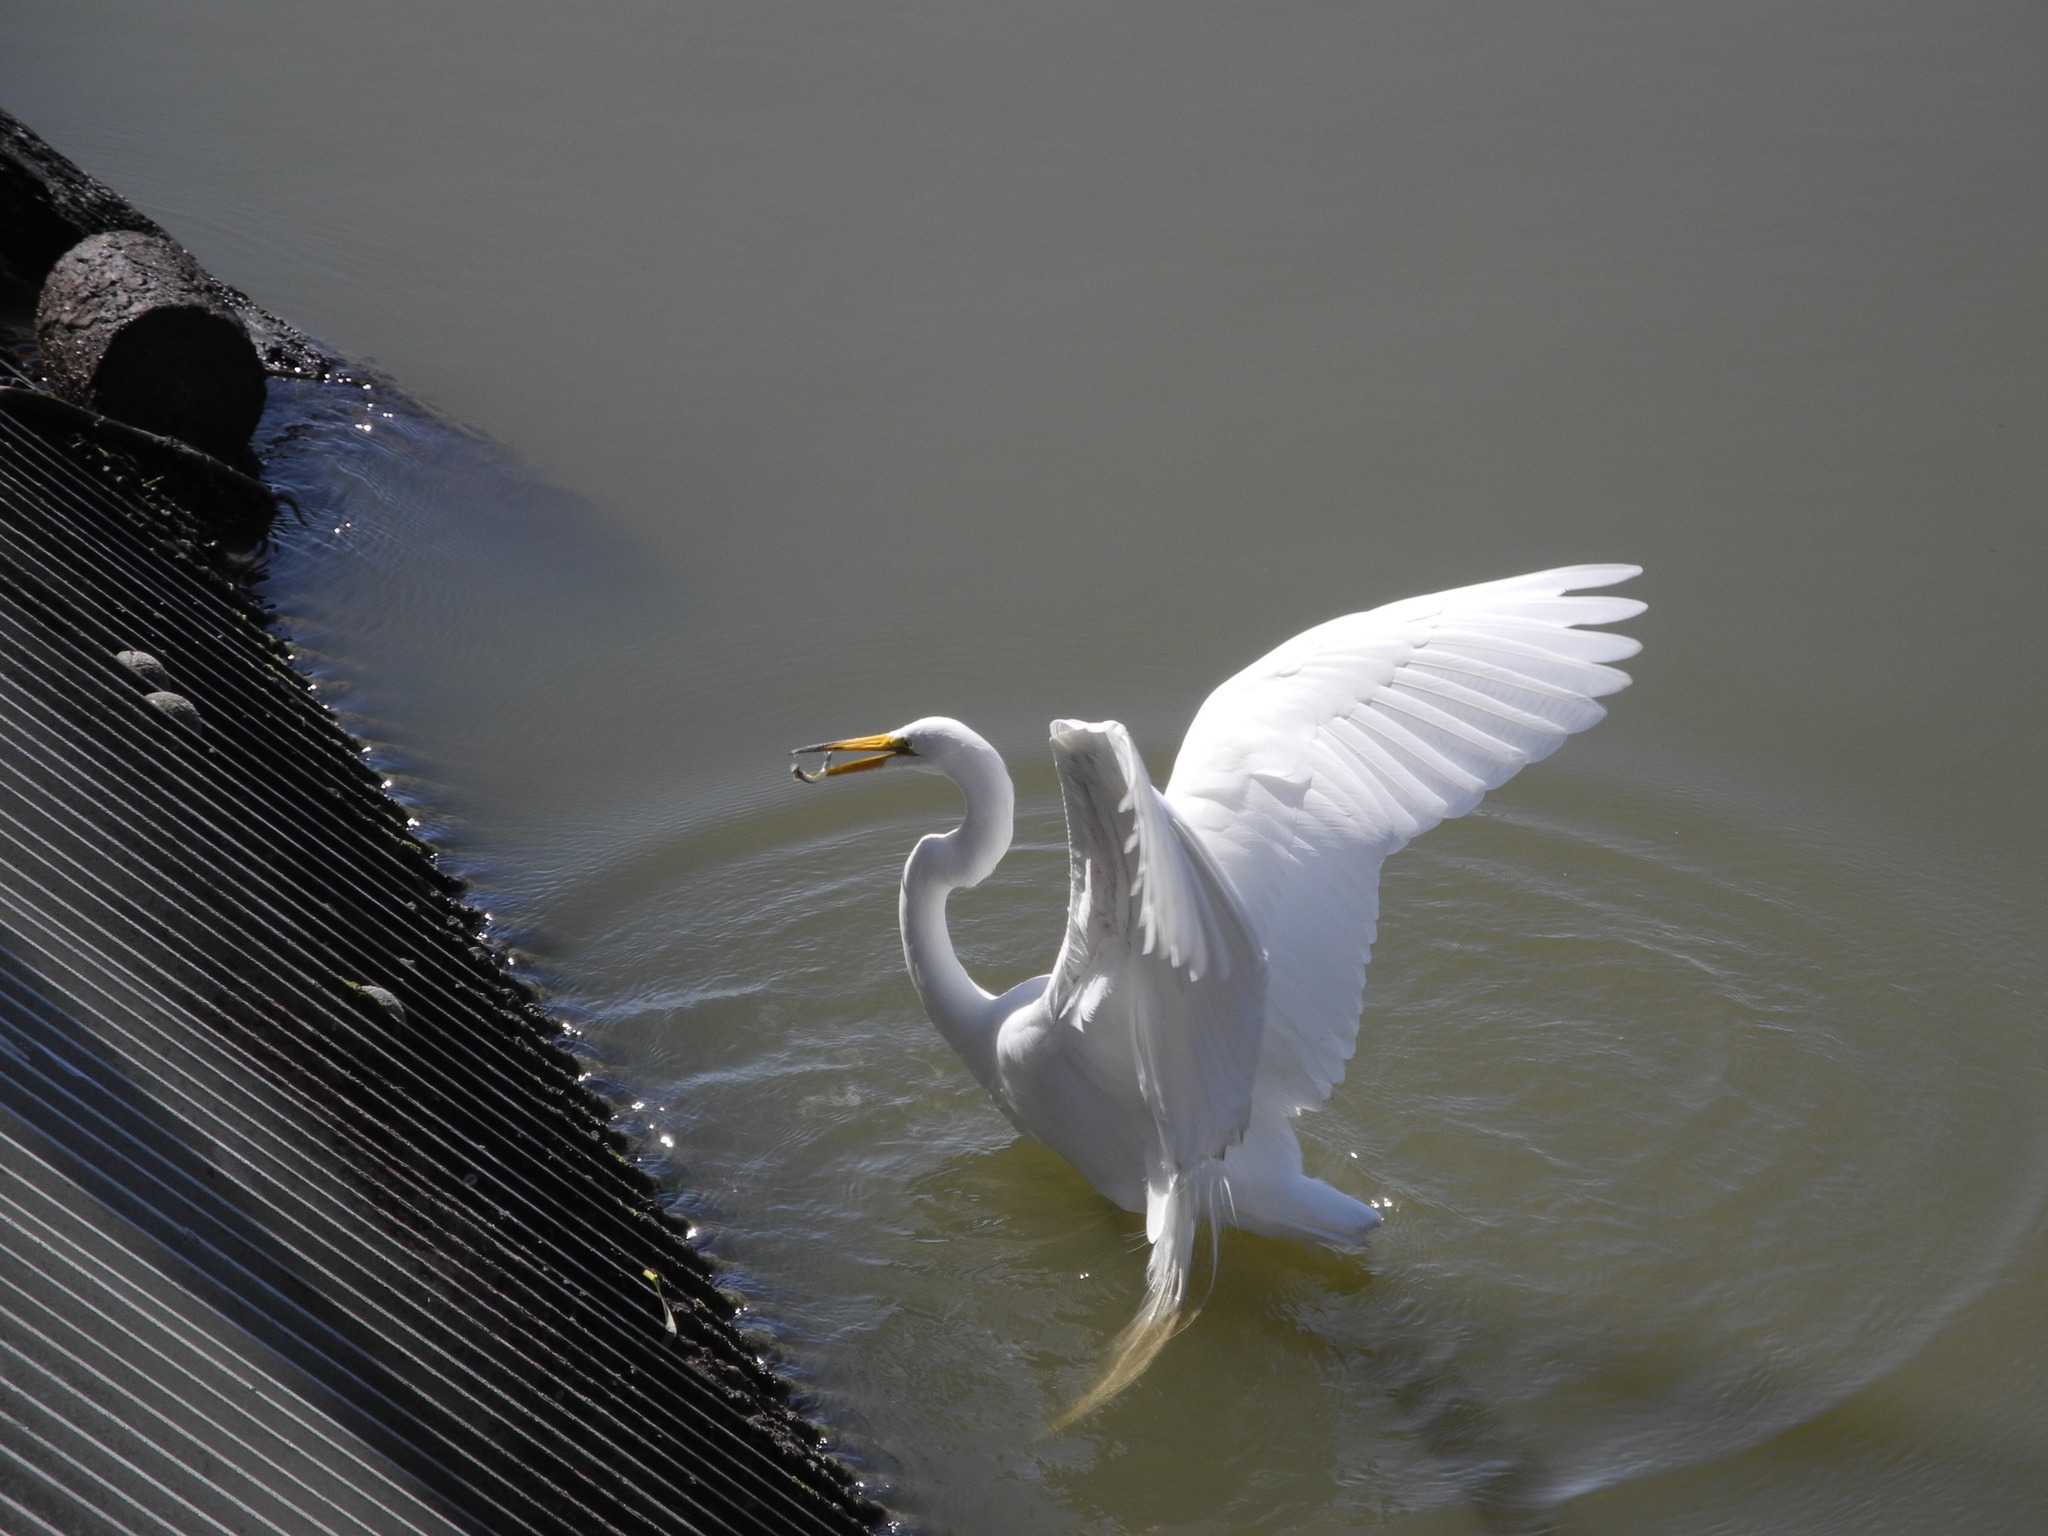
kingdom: Animalia
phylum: Chordata
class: Aves
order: Pelecaniformes
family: Ardeidae
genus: Ardea
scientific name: Ardea alba
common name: Great egret
